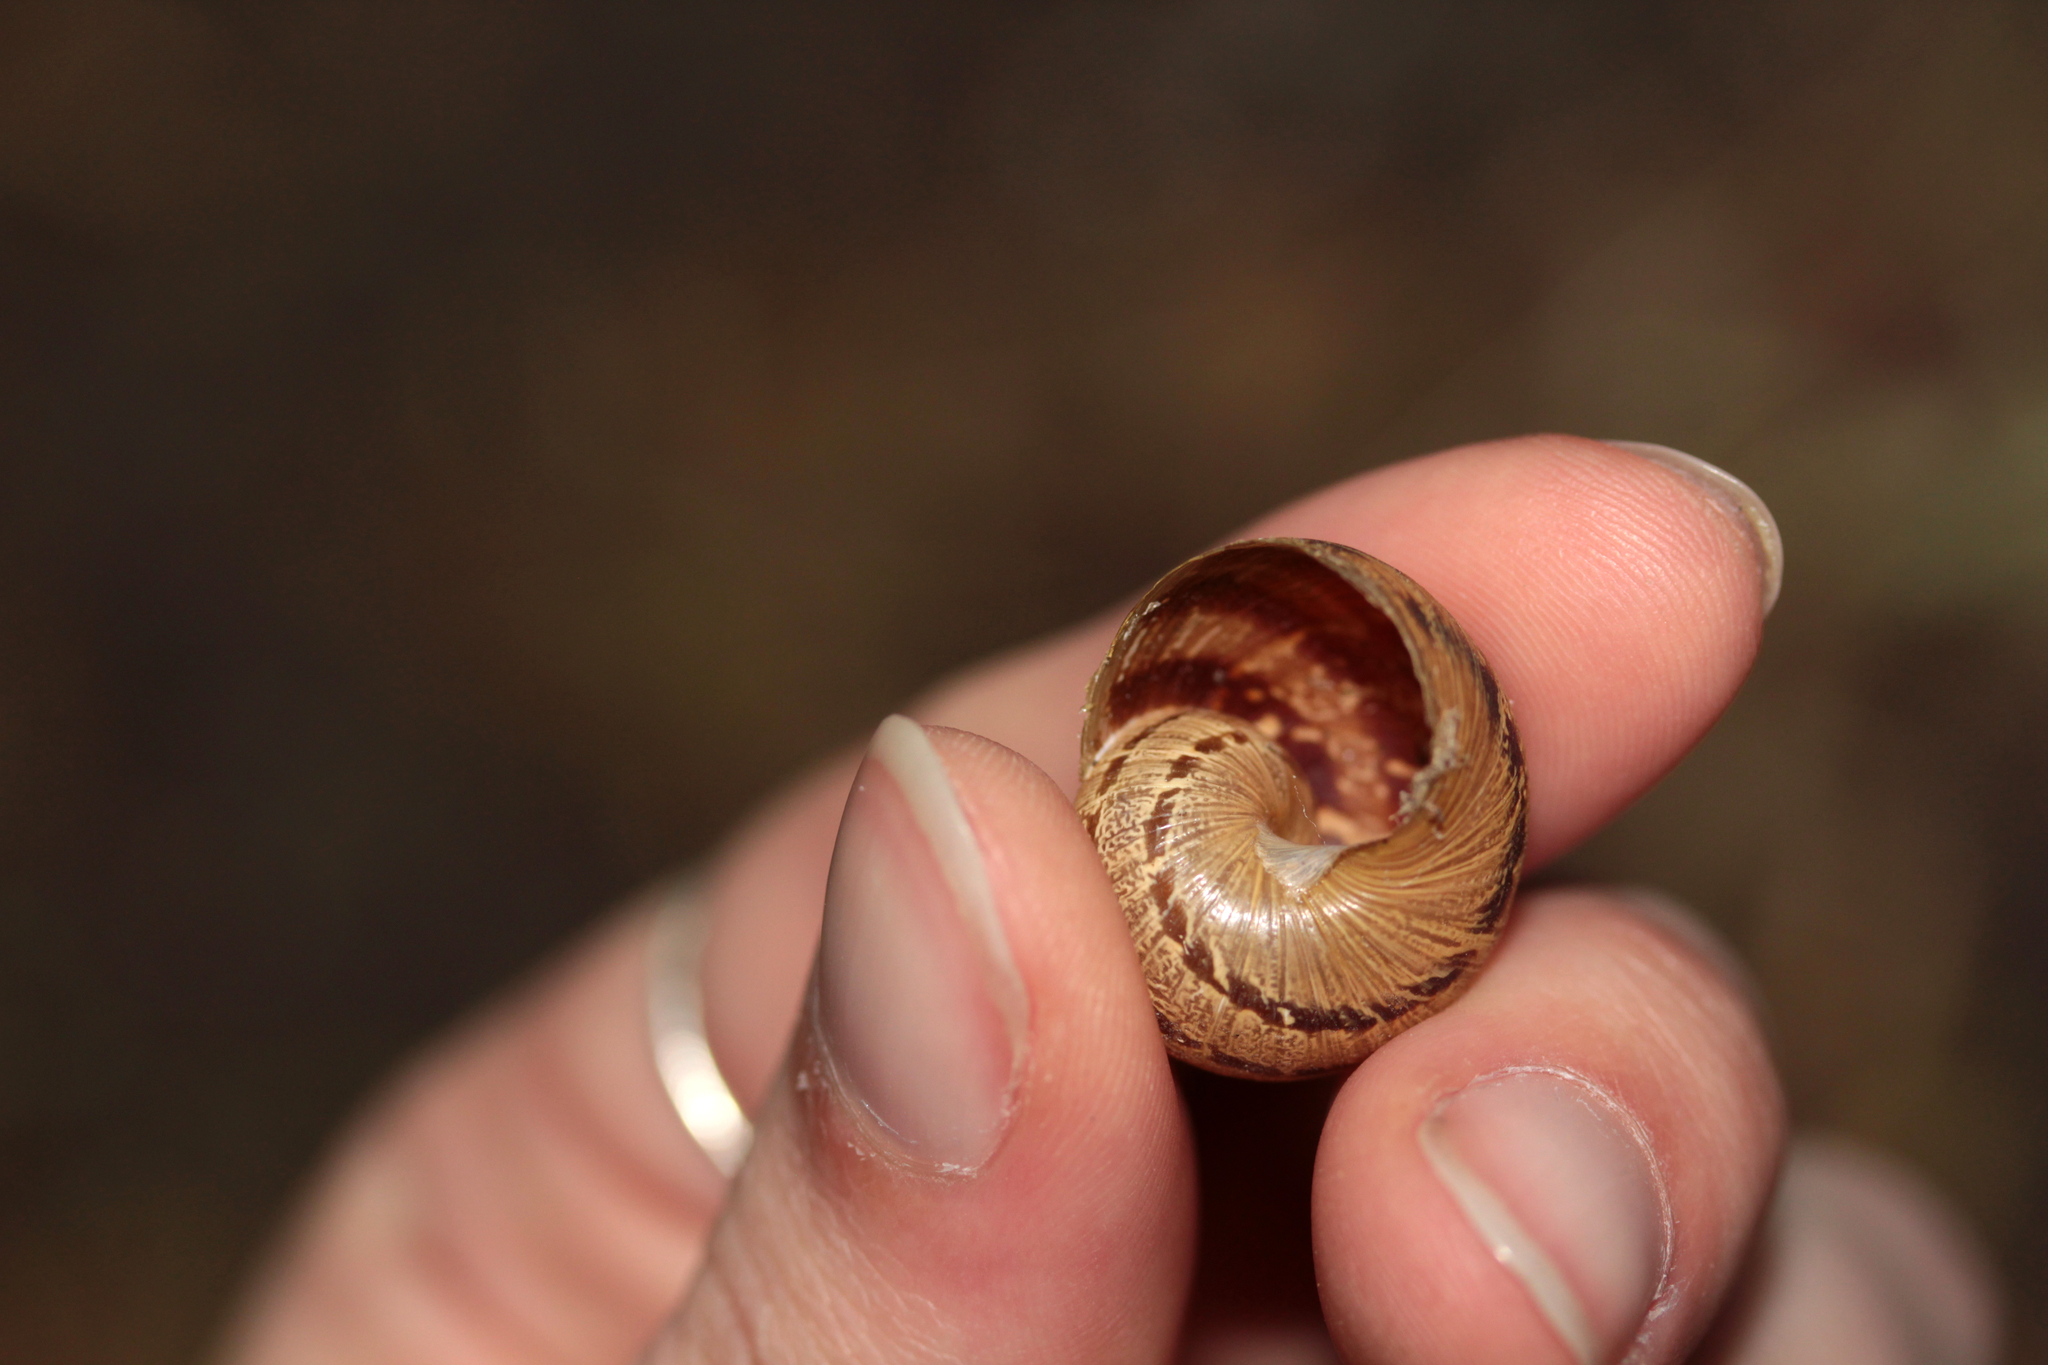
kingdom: Animalia
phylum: Mollusca
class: Gastropoda
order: Stylommatophora
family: Helicidae
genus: Cornu
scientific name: Cornu aspersum
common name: Brown garden snail
